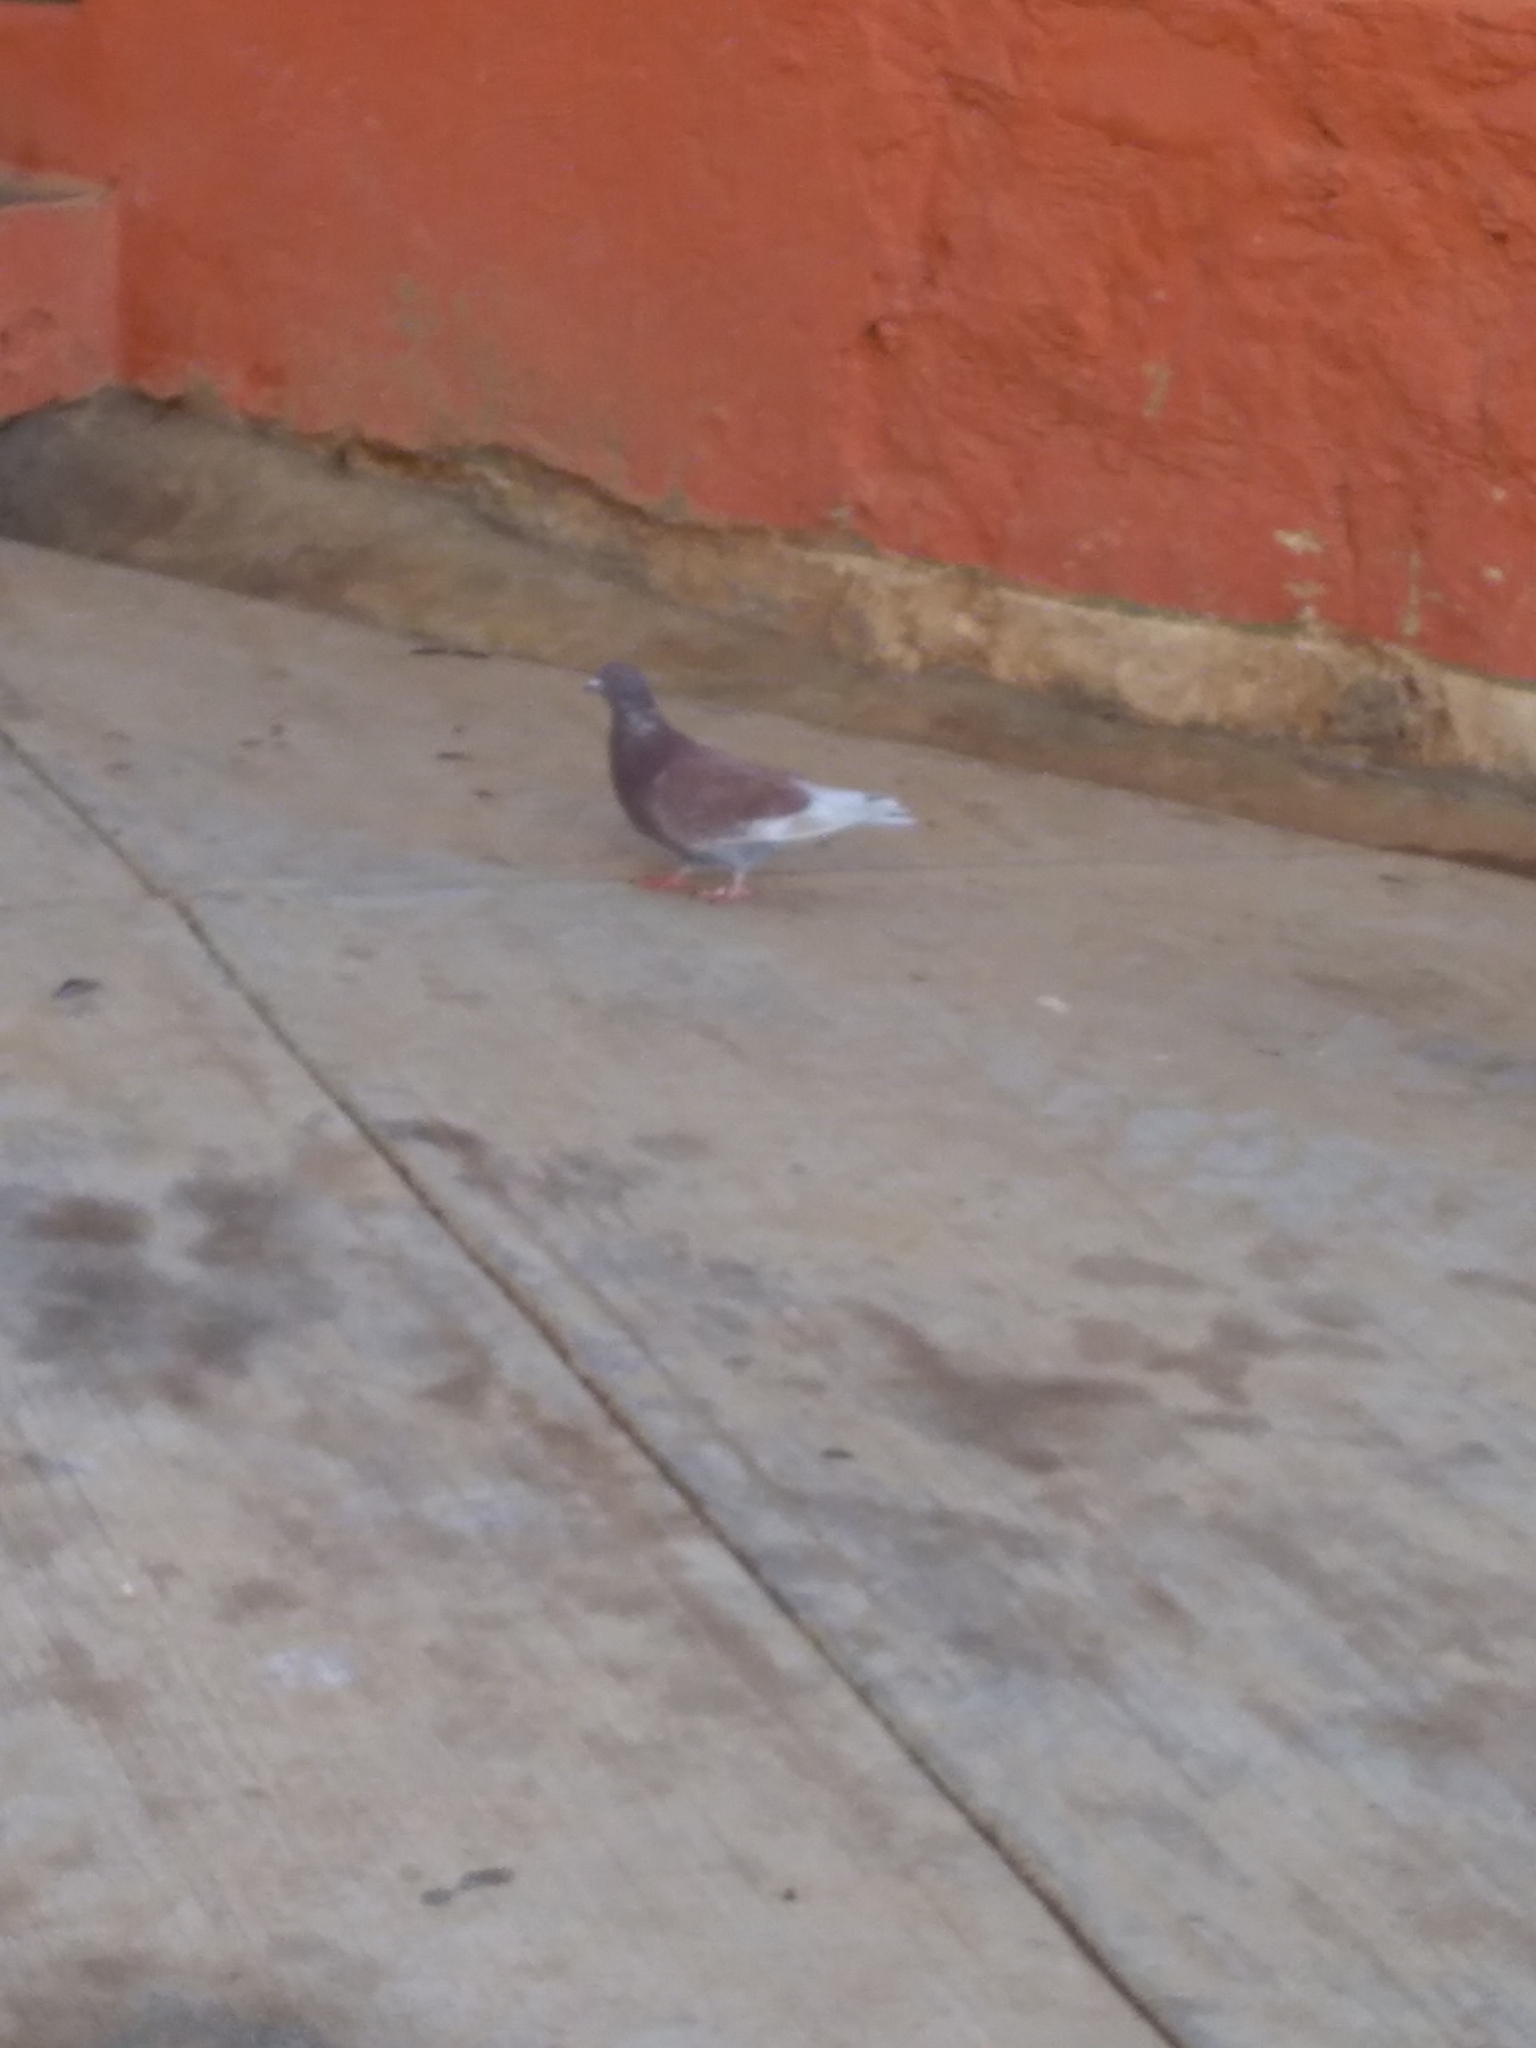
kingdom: Animalia
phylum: Chordata
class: Aves
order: Columbiformes
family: Columbidae
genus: Columba
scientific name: Columba livia
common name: Rock pigeon
